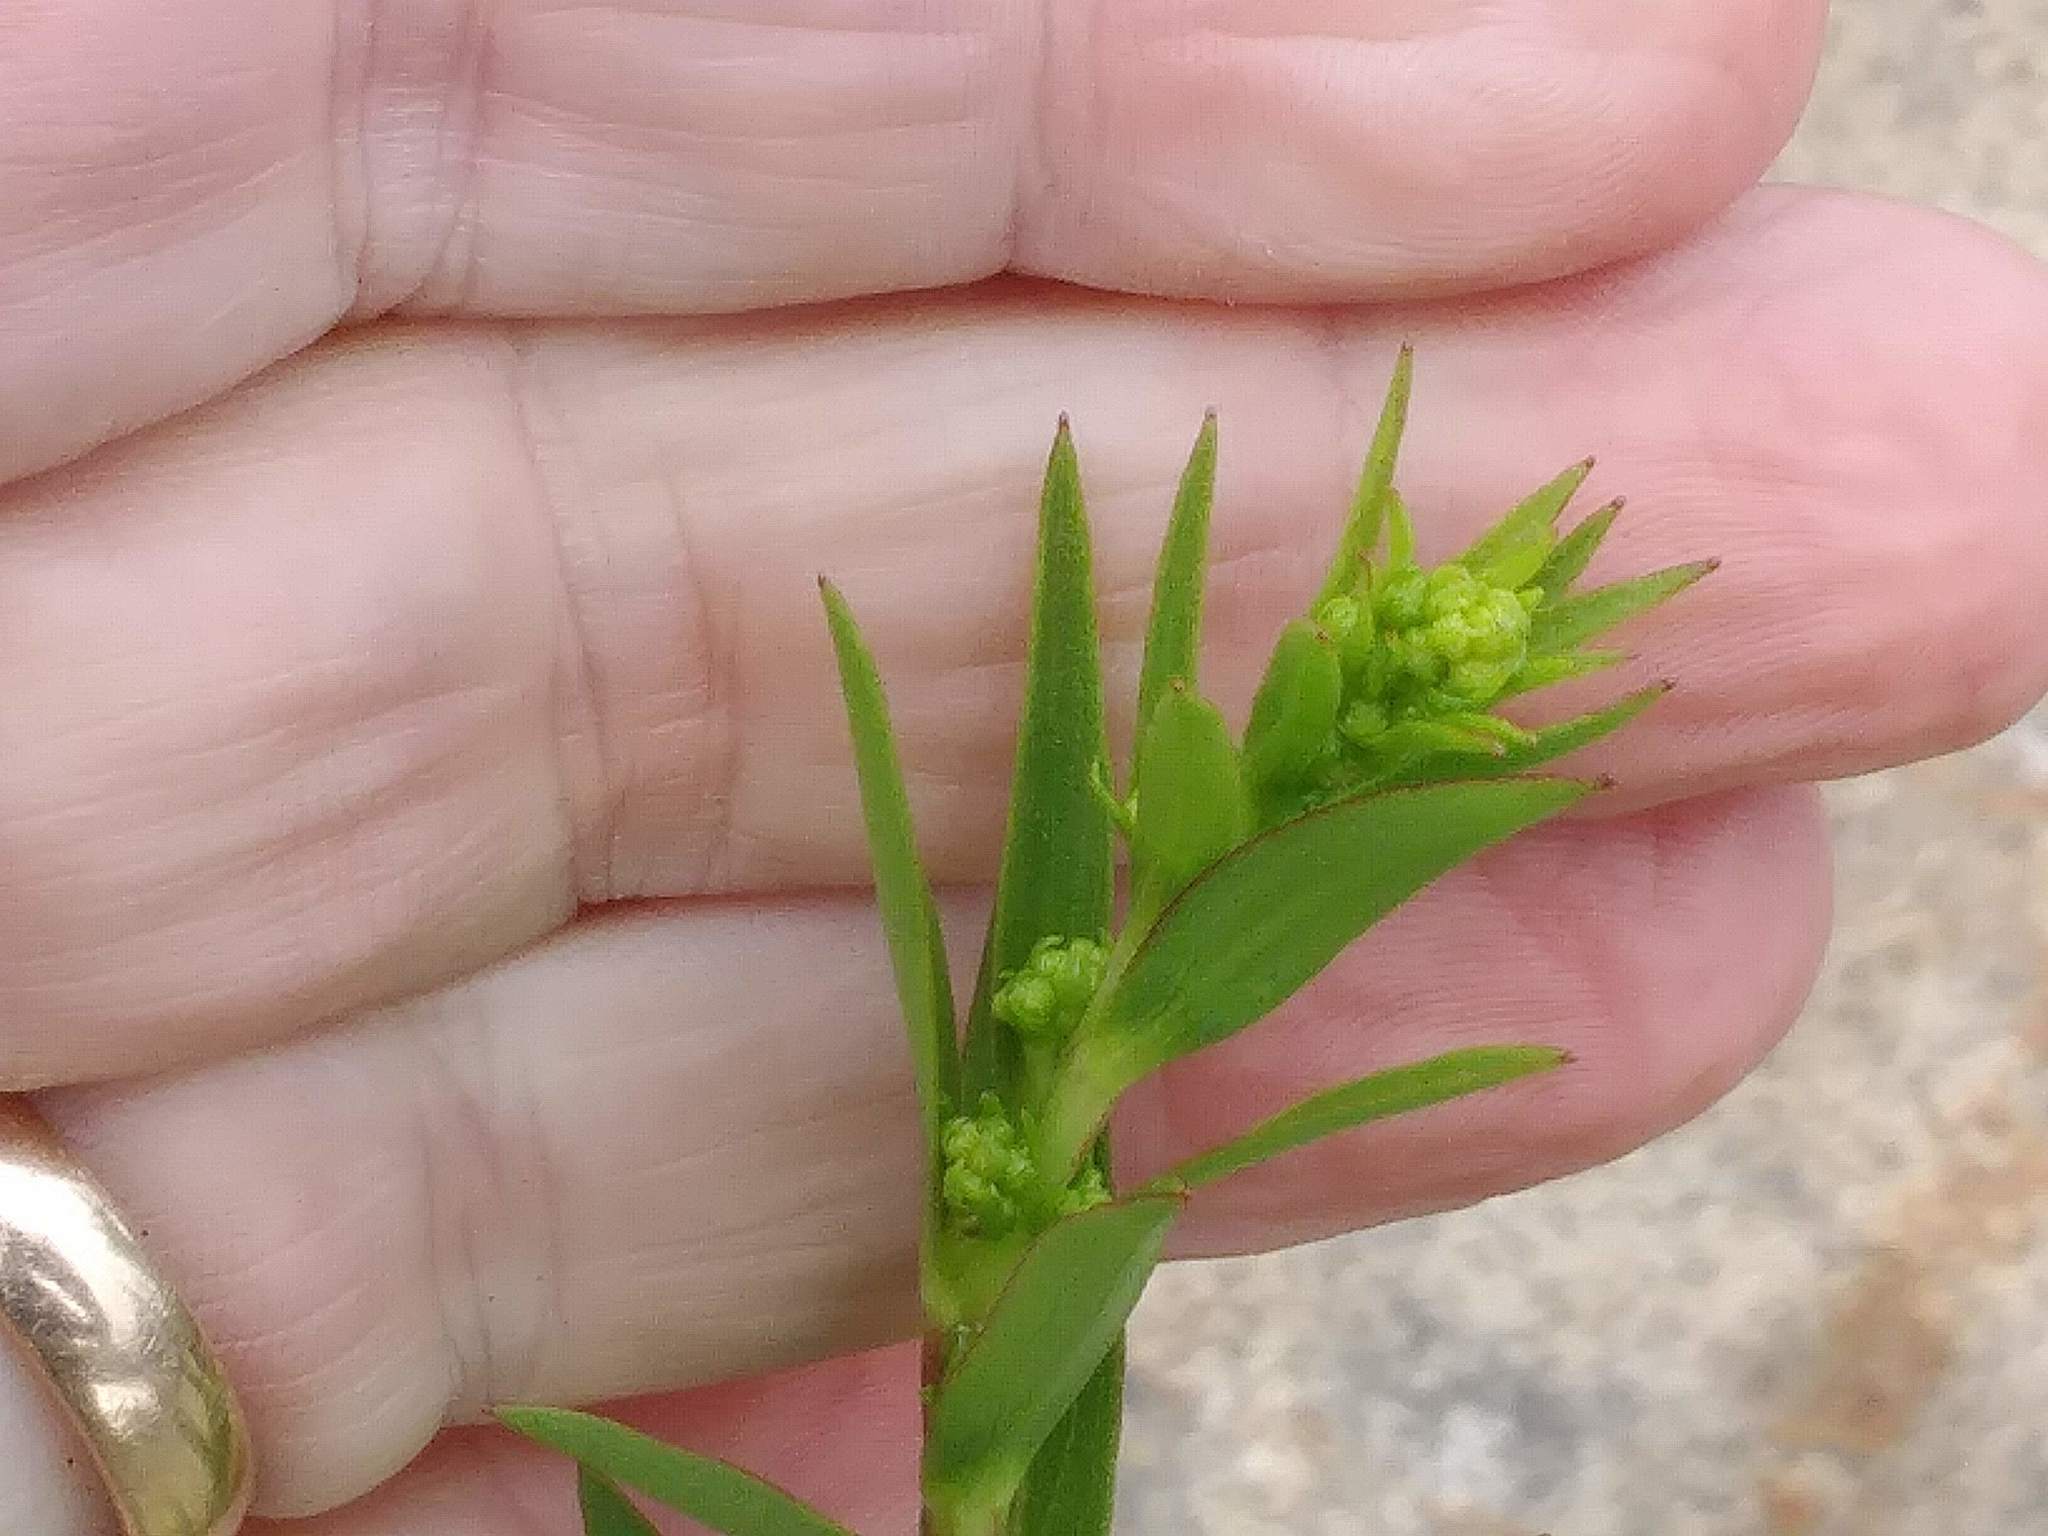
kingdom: Plantae
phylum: Tracheophyta
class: Magnoliopsida
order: Asterales
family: Asteraceae
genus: Solidago
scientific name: Solidago sempervirens
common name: Salt-marsh goldenrod
